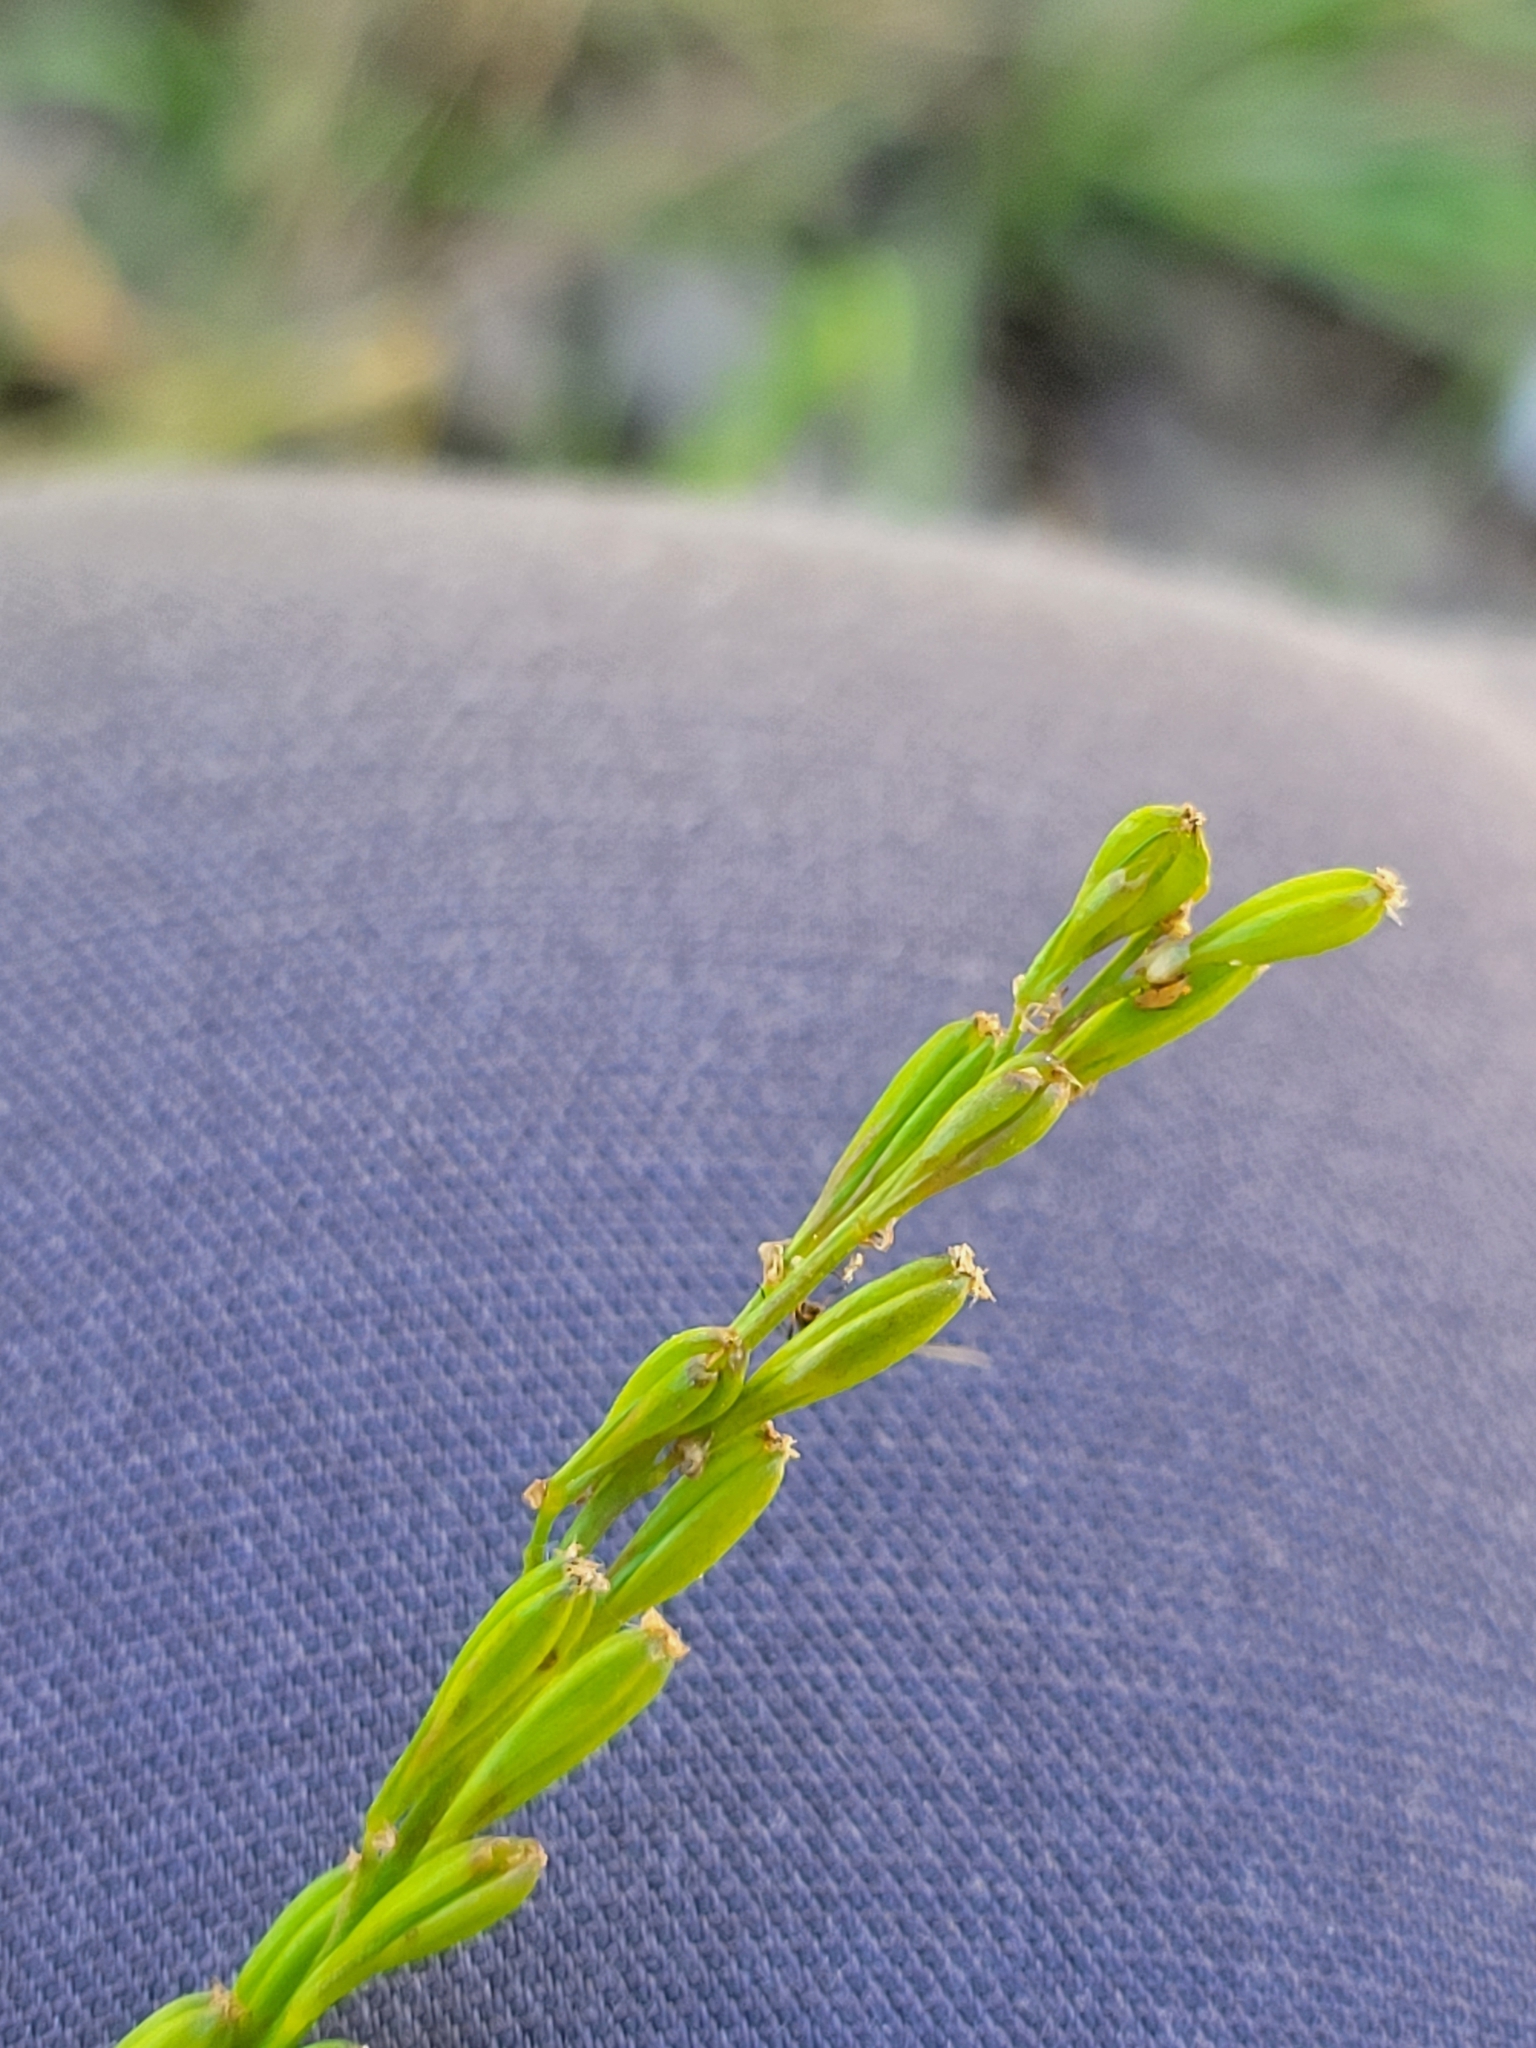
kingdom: Plantae
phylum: Tracheophyta
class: Liliopsida
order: Alismatales
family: Juncaginaceae
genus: Triglochin
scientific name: Triglochin palustris
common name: Marsh arrowgrass
